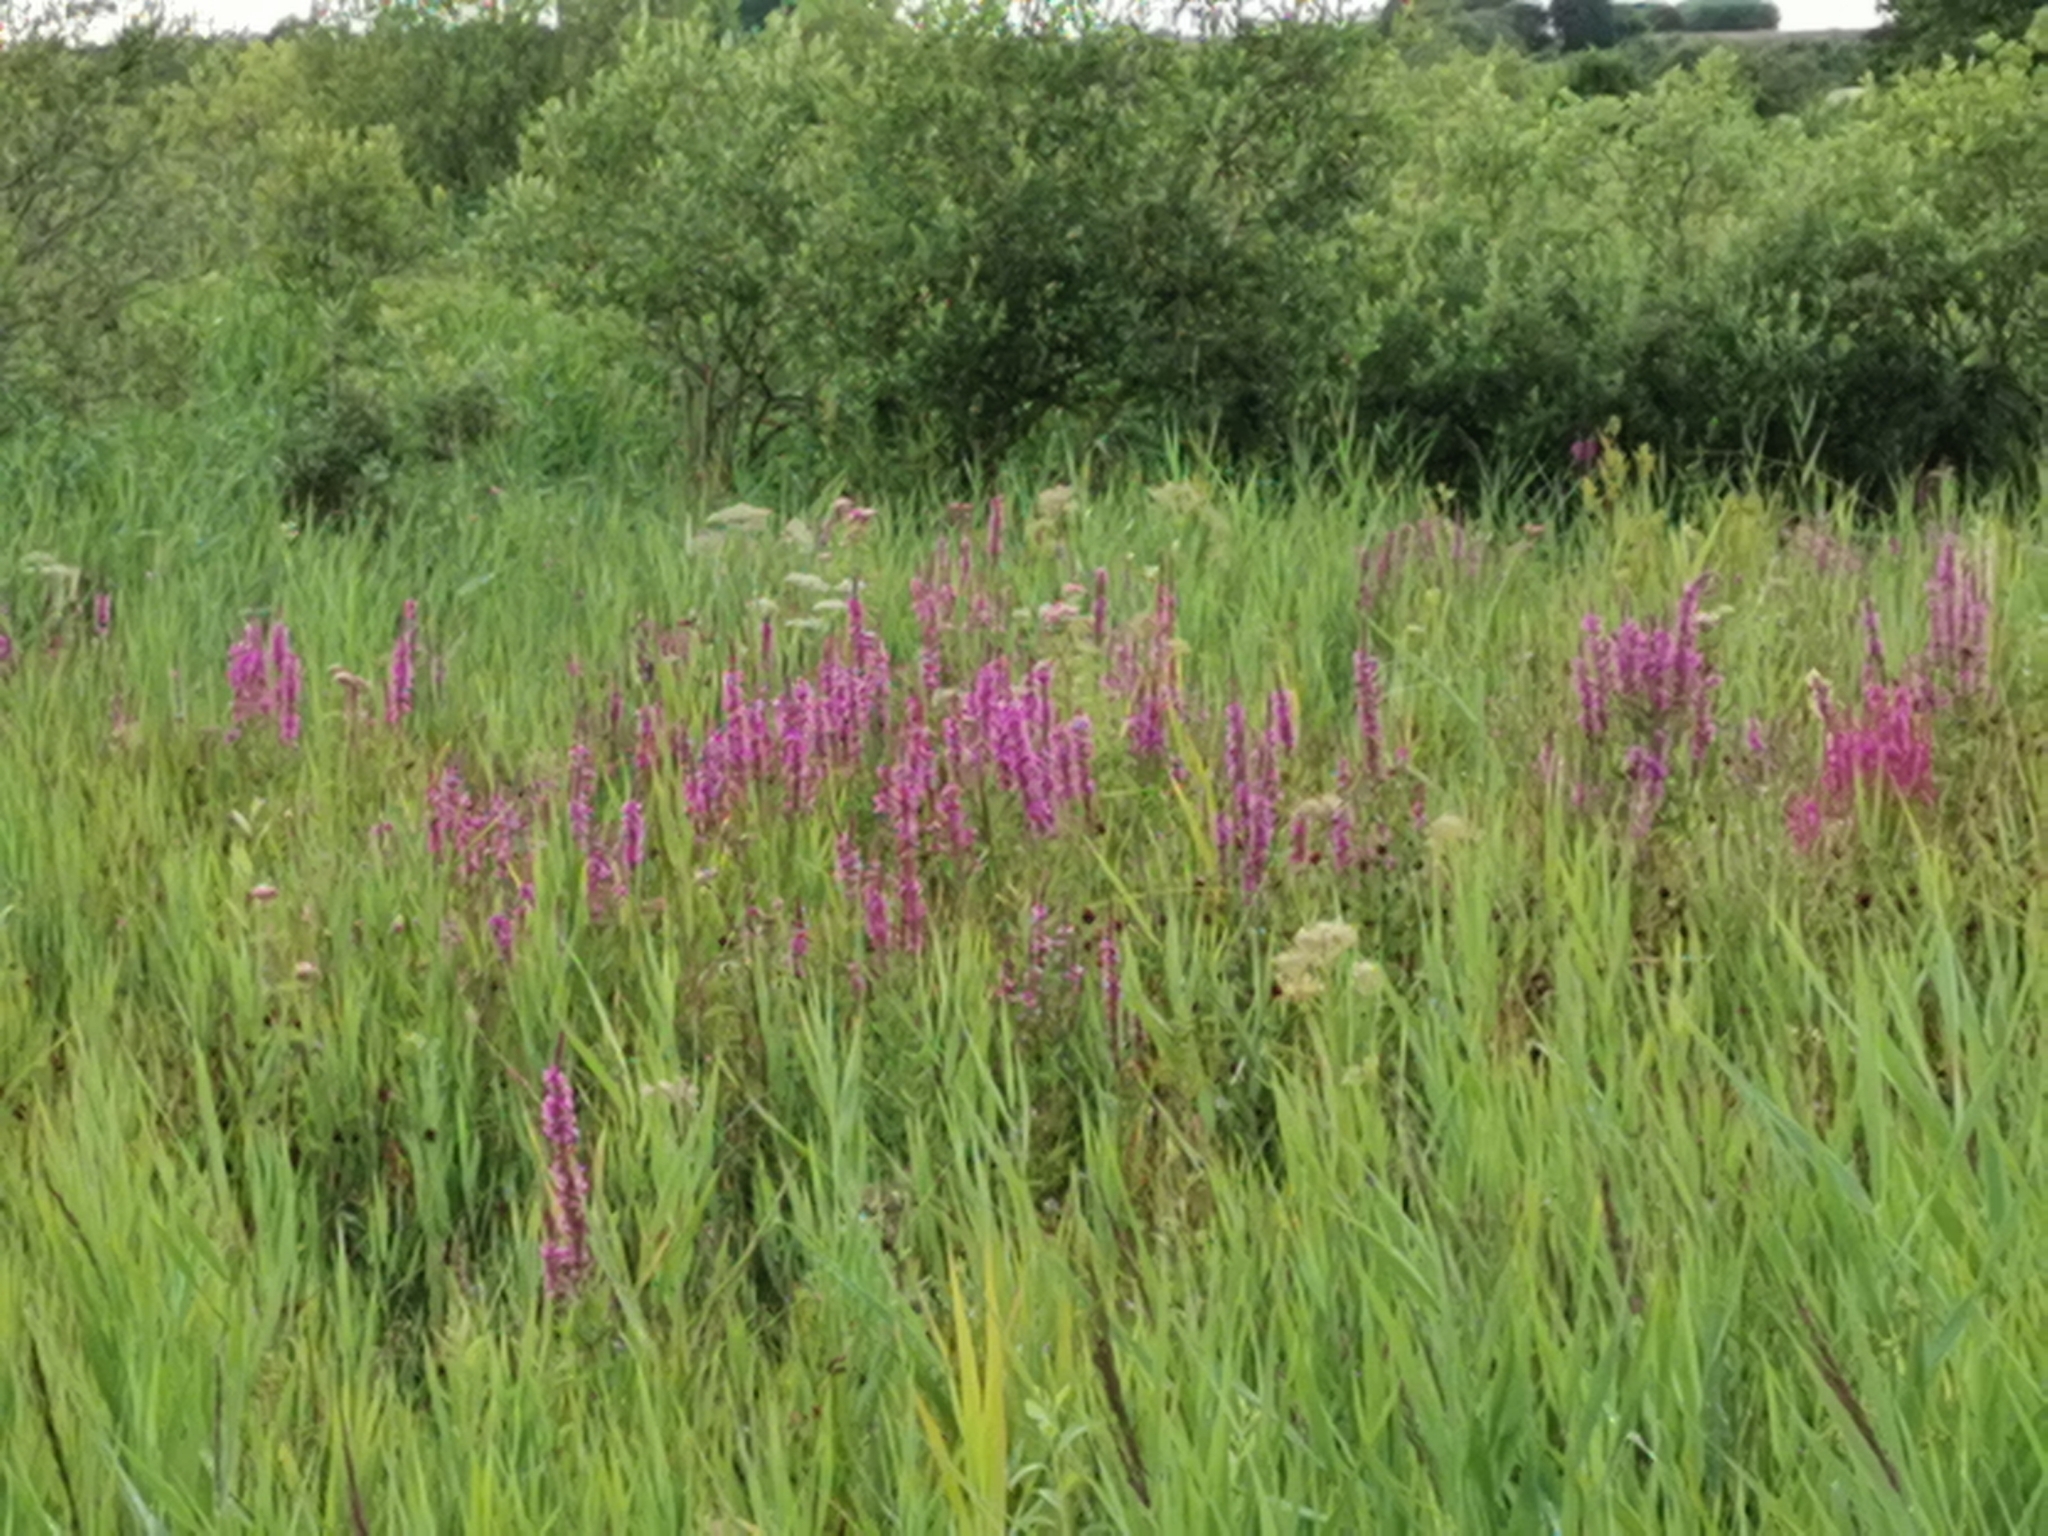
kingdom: Plantae
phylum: Tracheophyta
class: Magnoliopsida
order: Myrtales
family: Lythraceae
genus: Lythrum
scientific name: Lythrum salicaria
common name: Purple loosestrife
